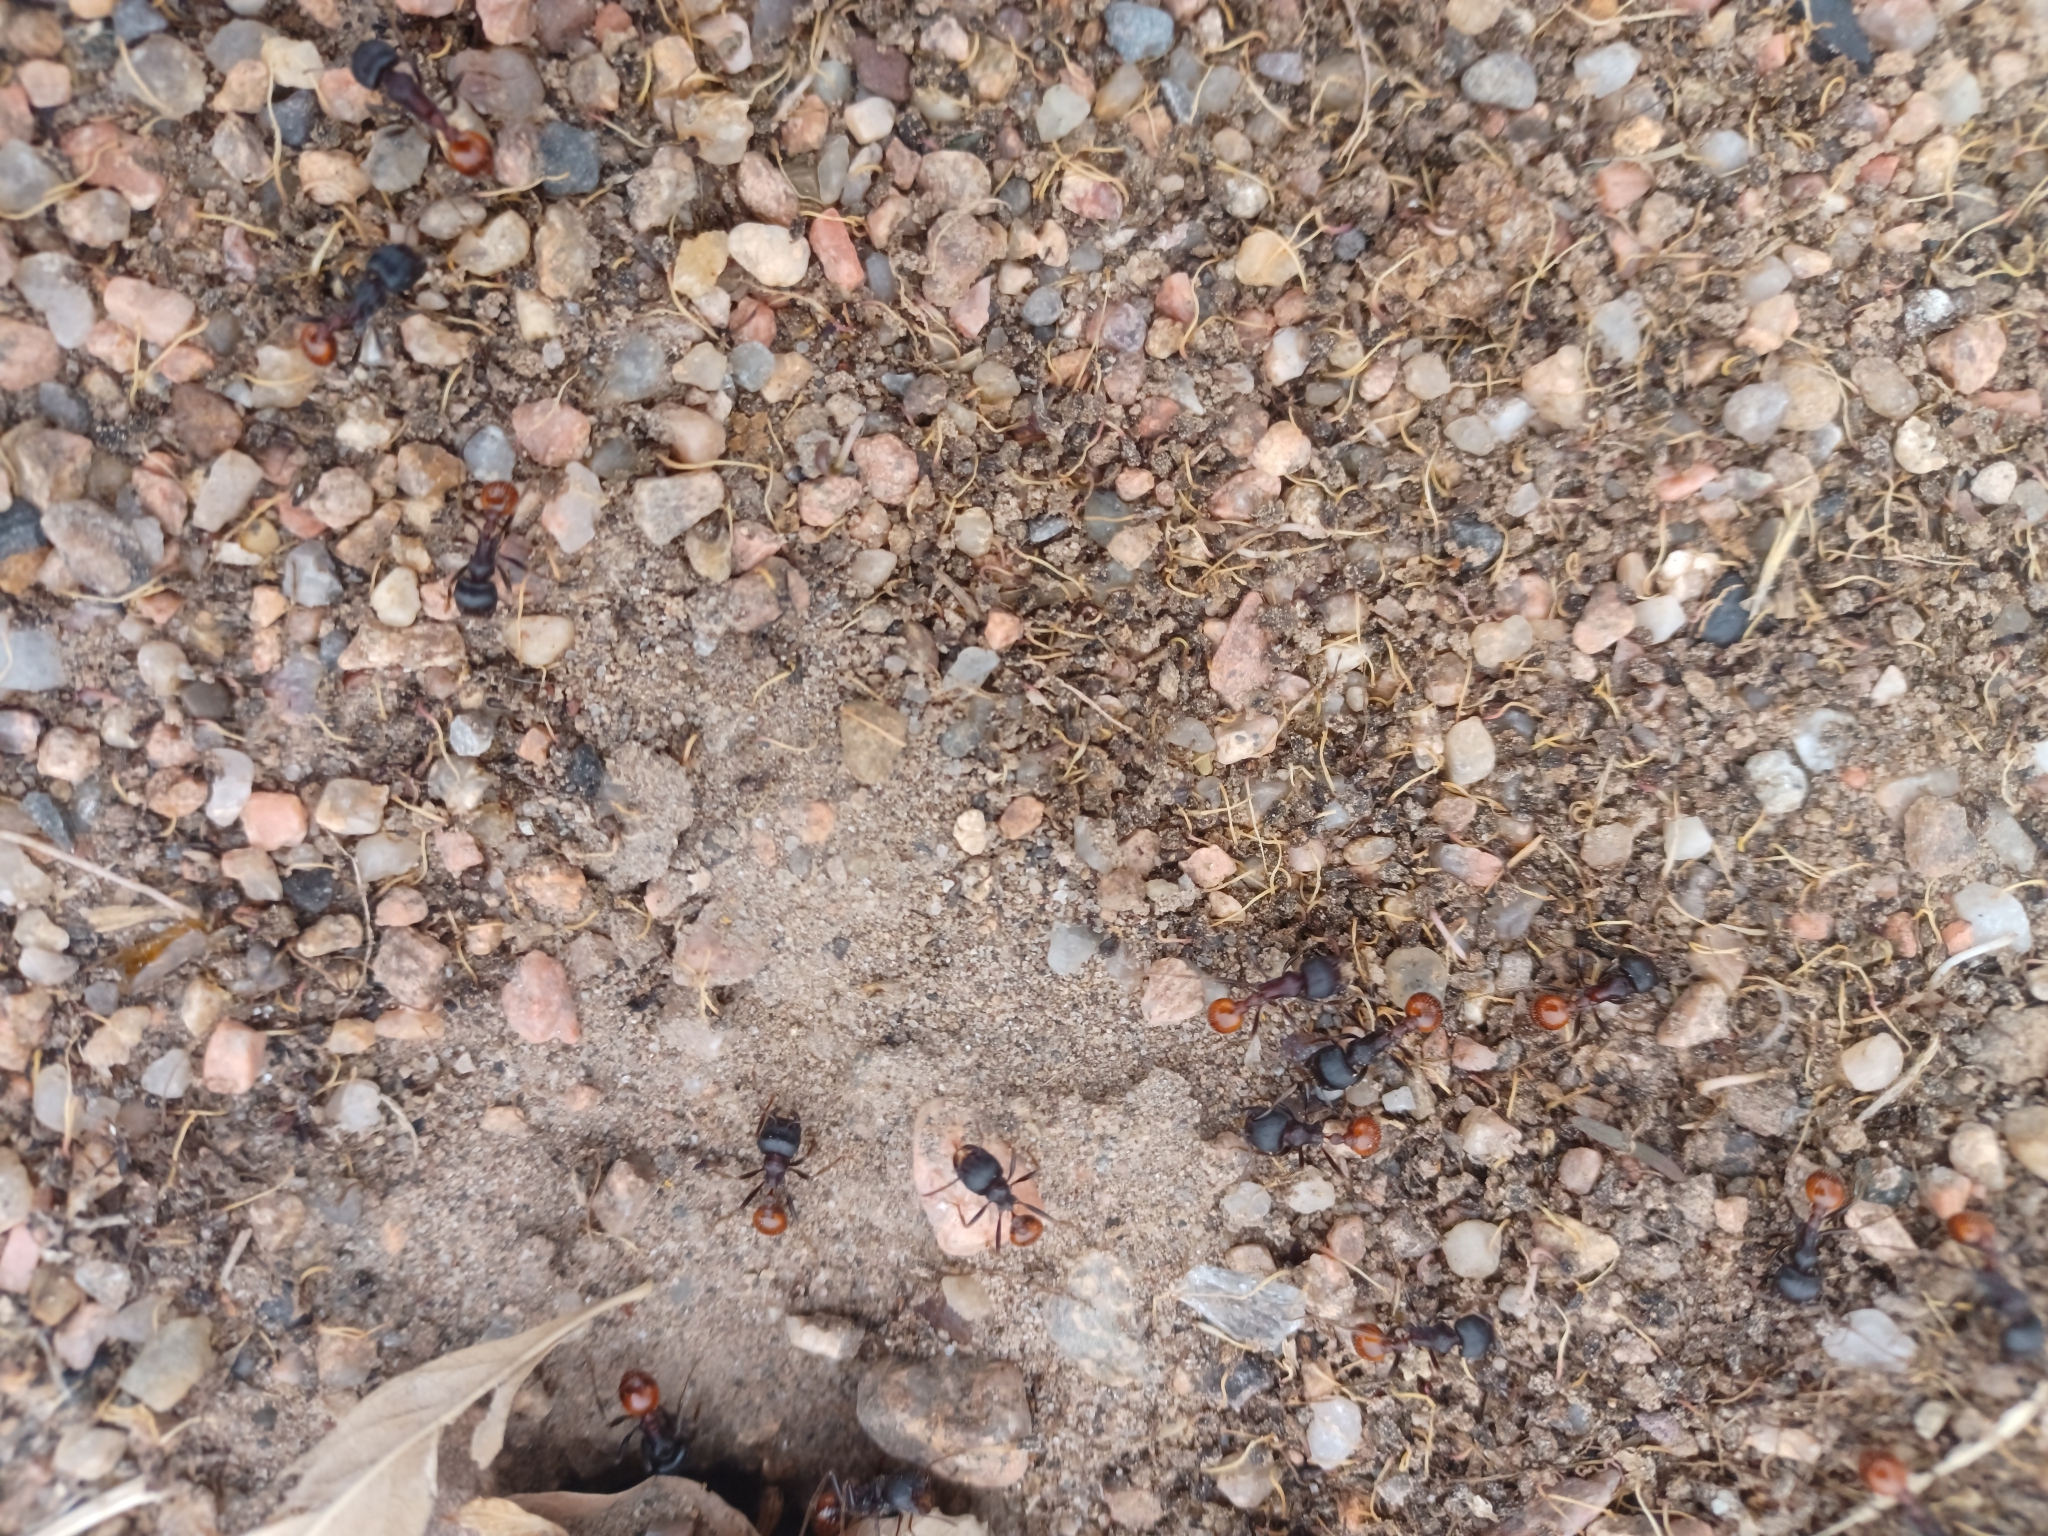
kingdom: Animalia
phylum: Arthropoda
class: Insecta
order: Hymenoptera
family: Formicidae
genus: Pogonomyrmex
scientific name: Pogonomyrmex rugosus
